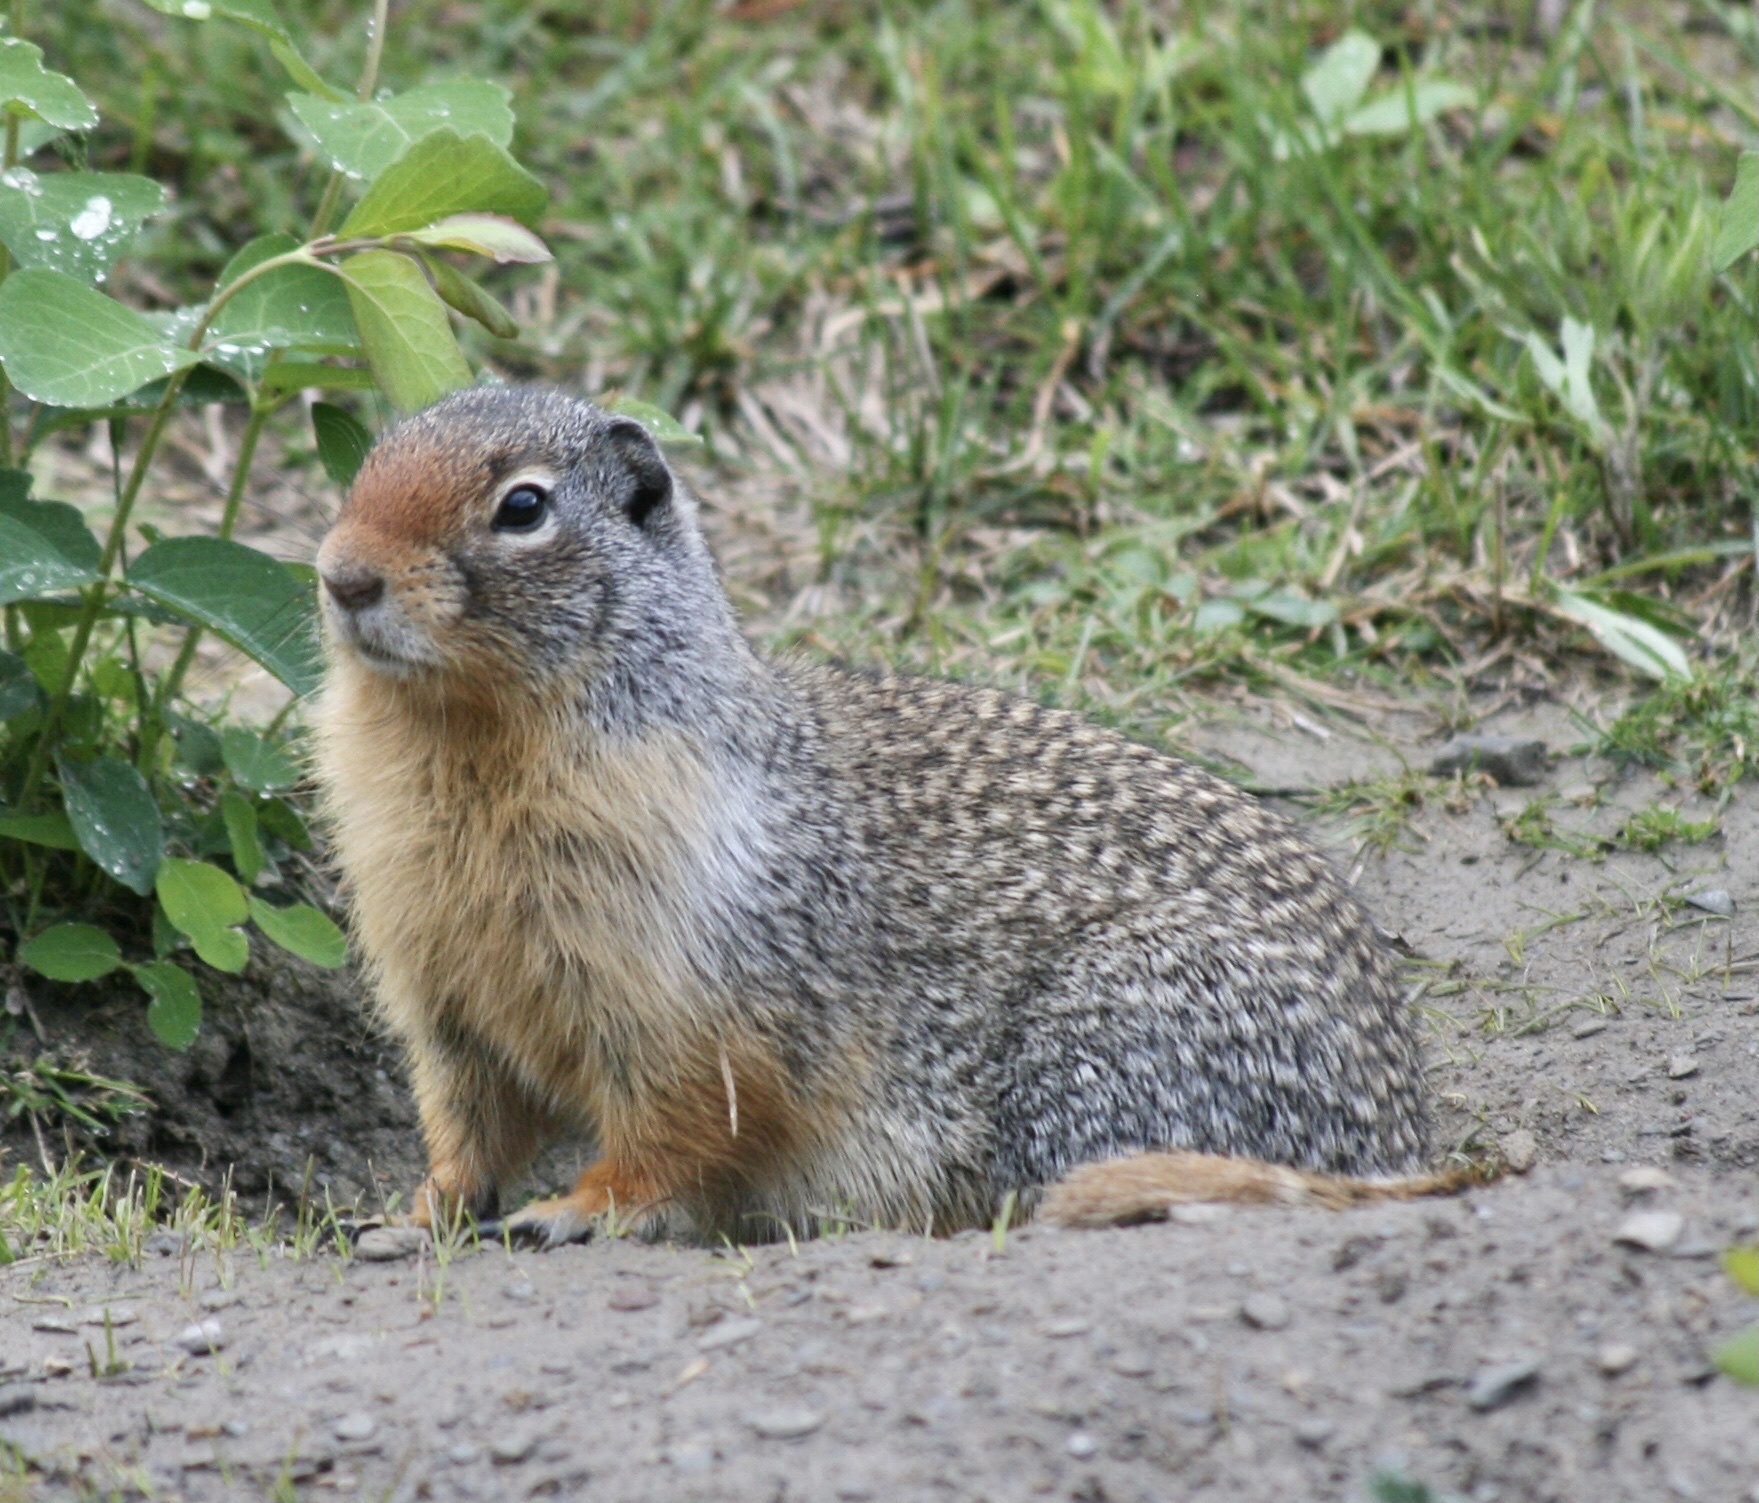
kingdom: Animalia
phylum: Chordata
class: Mammalia
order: Rodentia
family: Sciuridae
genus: Urocitellus
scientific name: Urocitellus columbianus
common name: Columbian ground squirrel
